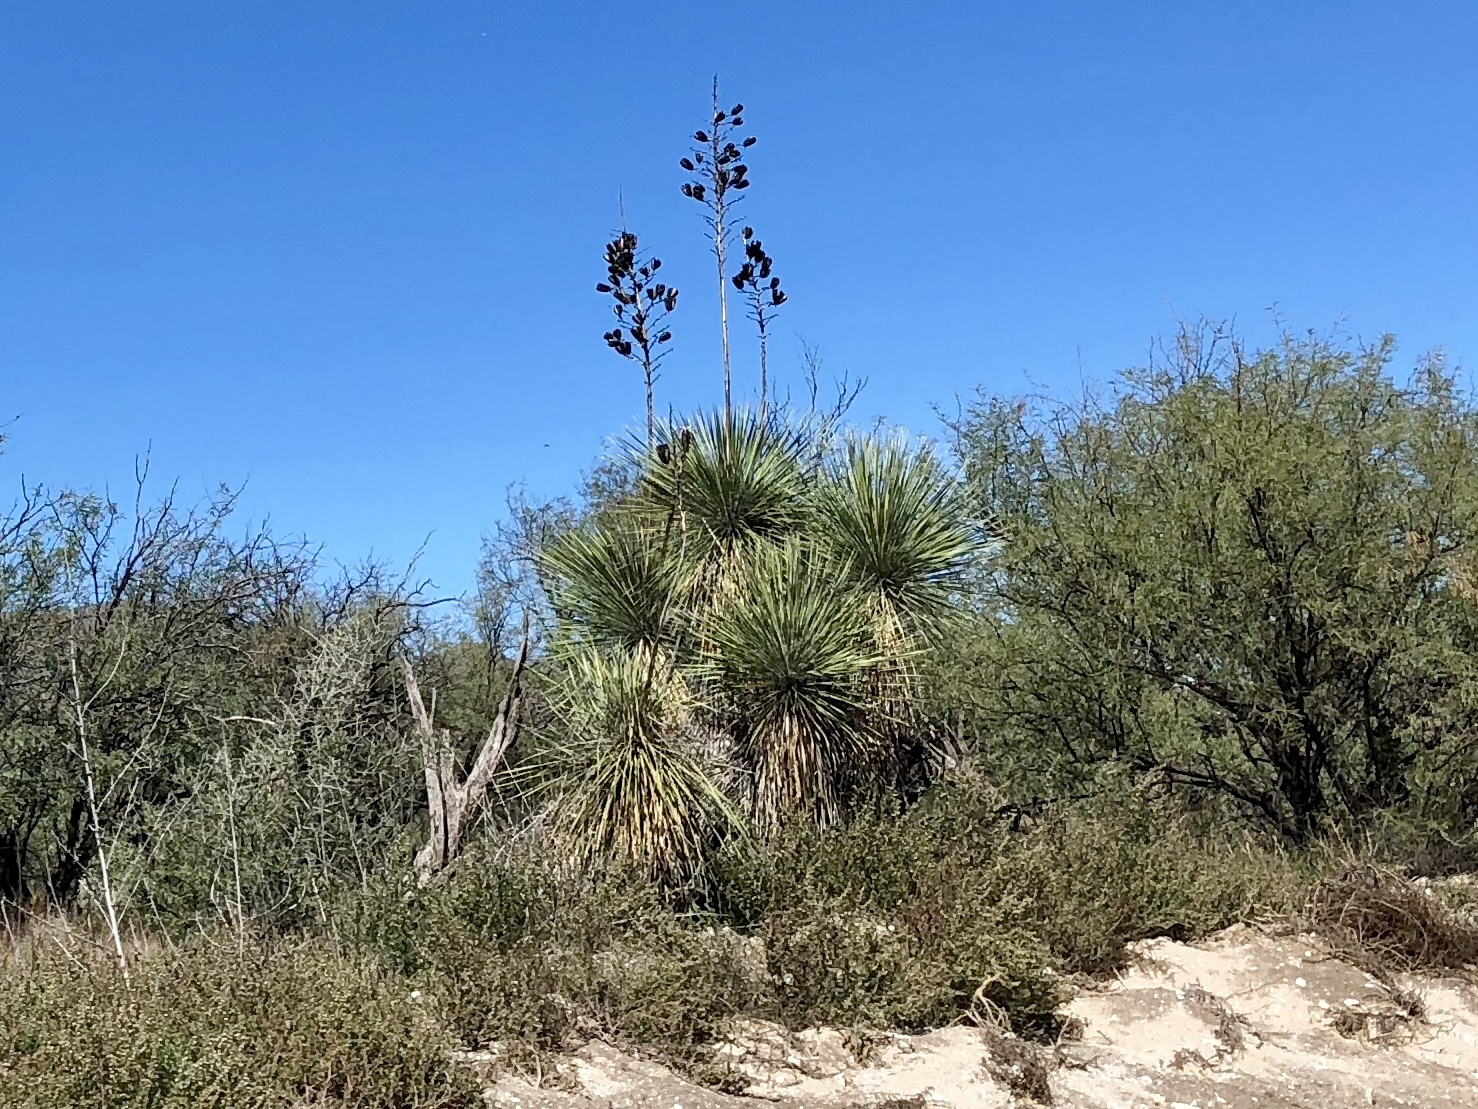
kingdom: Plantae
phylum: Tracheophyta
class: Liliopsida
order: Asparagales
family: Asparagaceae
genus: Yucca
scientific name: Yucca elata
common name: Palmella
